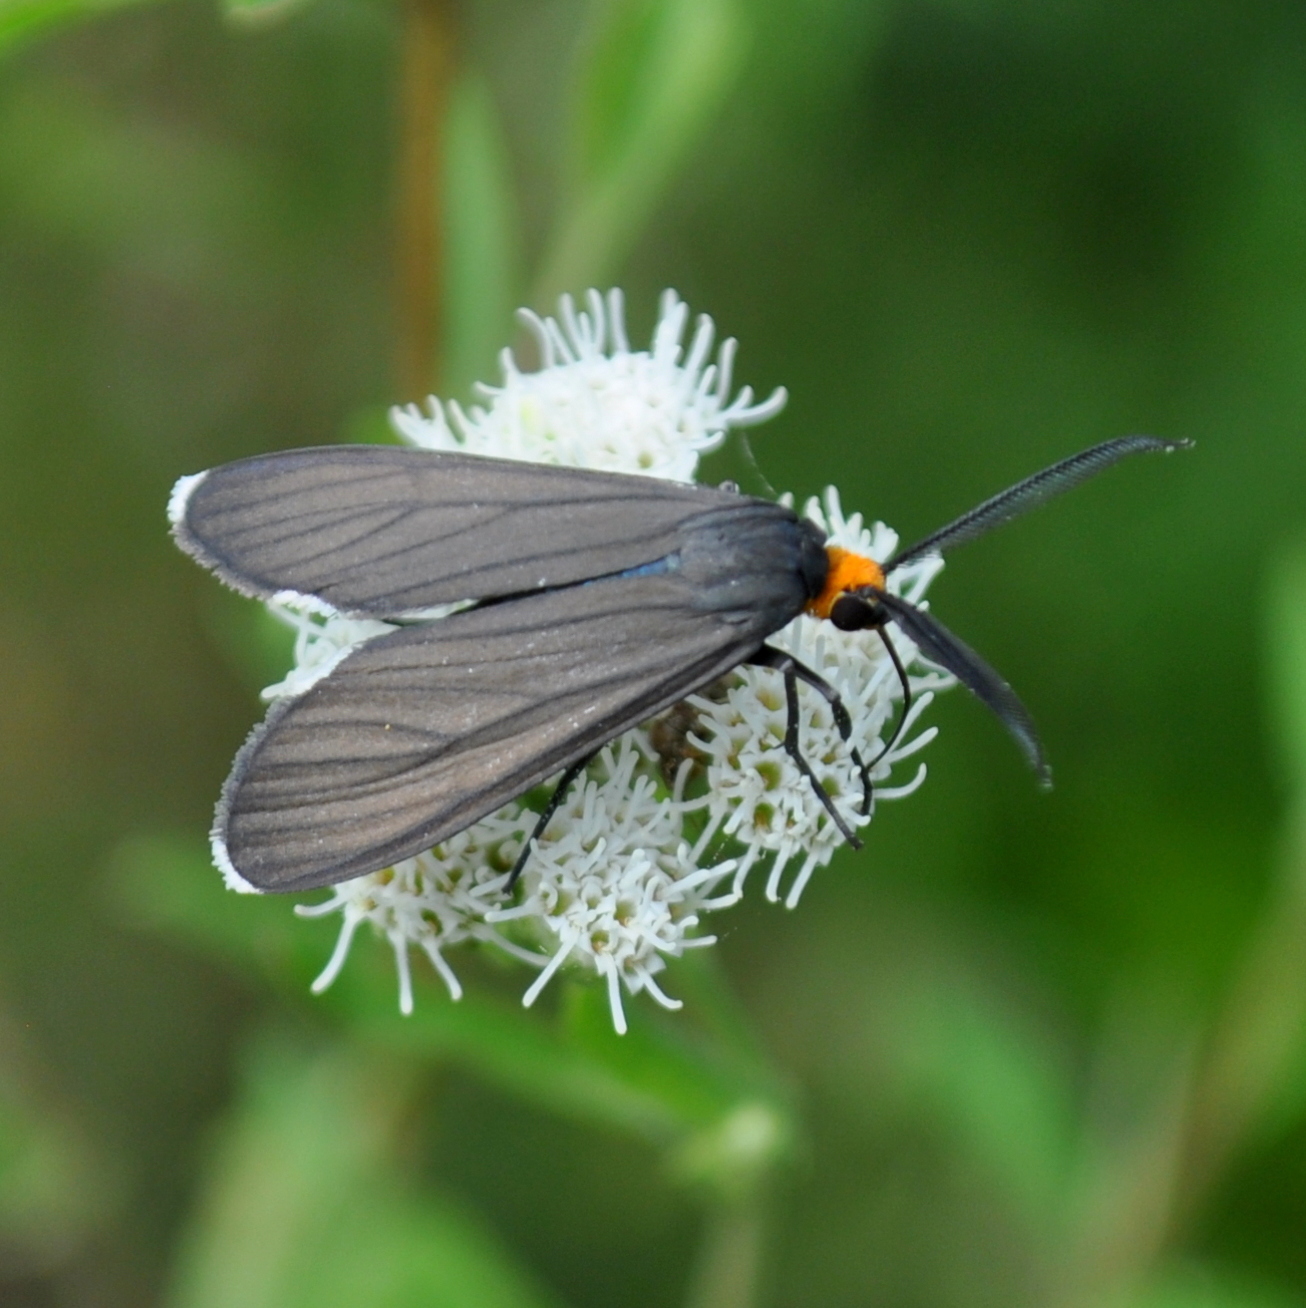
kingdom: Animalia
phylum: Arthropoda
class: Insecta
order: Lepidoptera
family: Erebidae
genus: Ctenucha
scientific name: Ctenucha rubriceps
